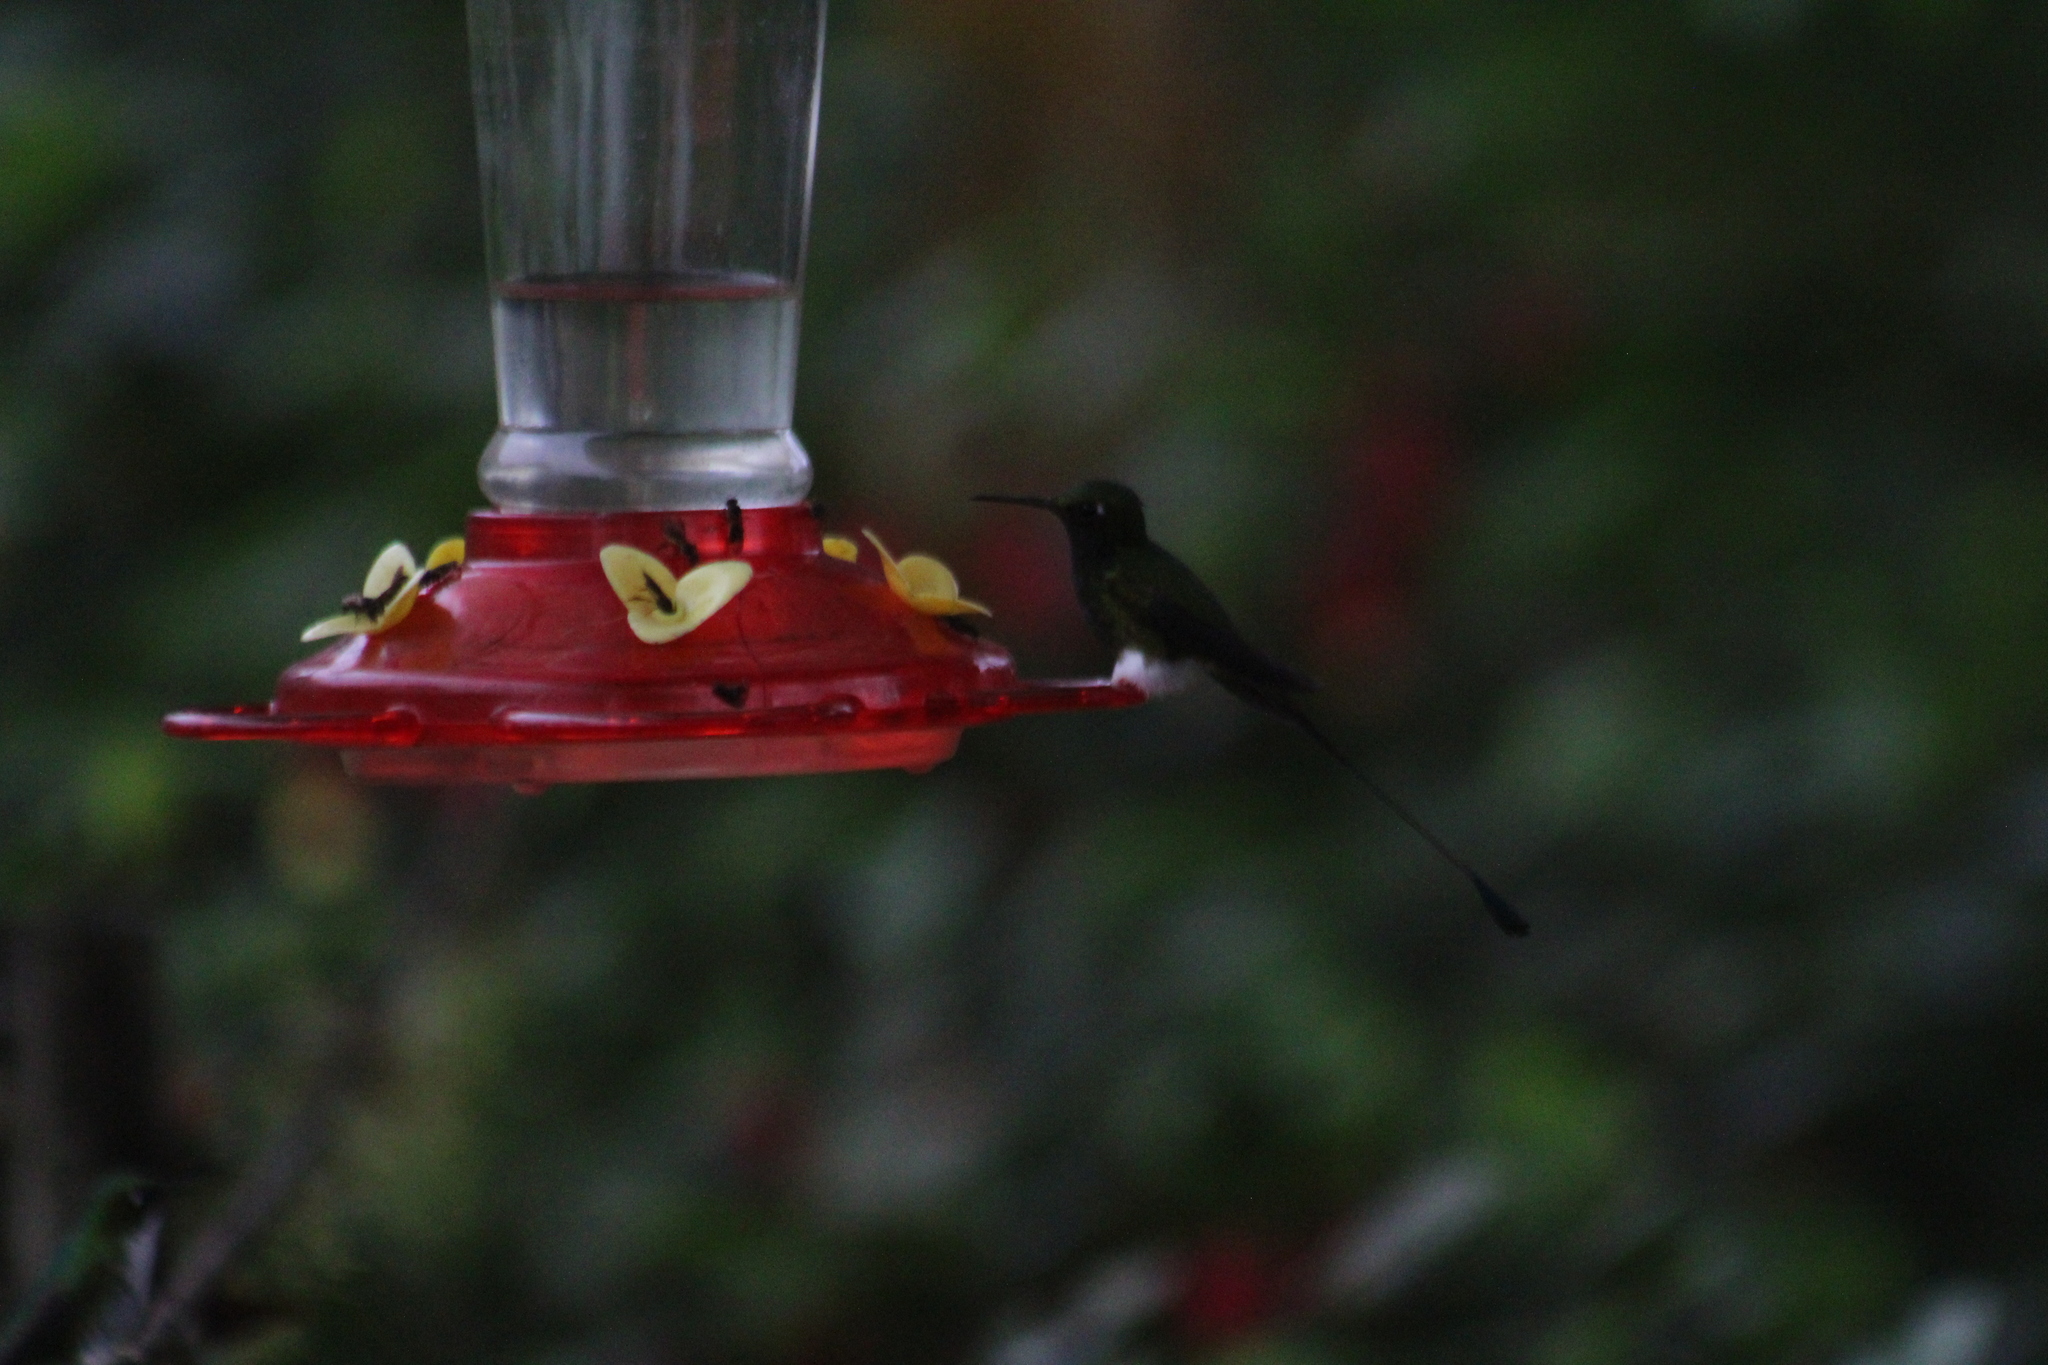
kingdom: Animalia
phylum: Chordata
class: Aves
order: Apodiformes
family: Trochilidae
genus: Ocreatus
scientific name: Ocreatus underwoodii
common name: Booted racket-tail
